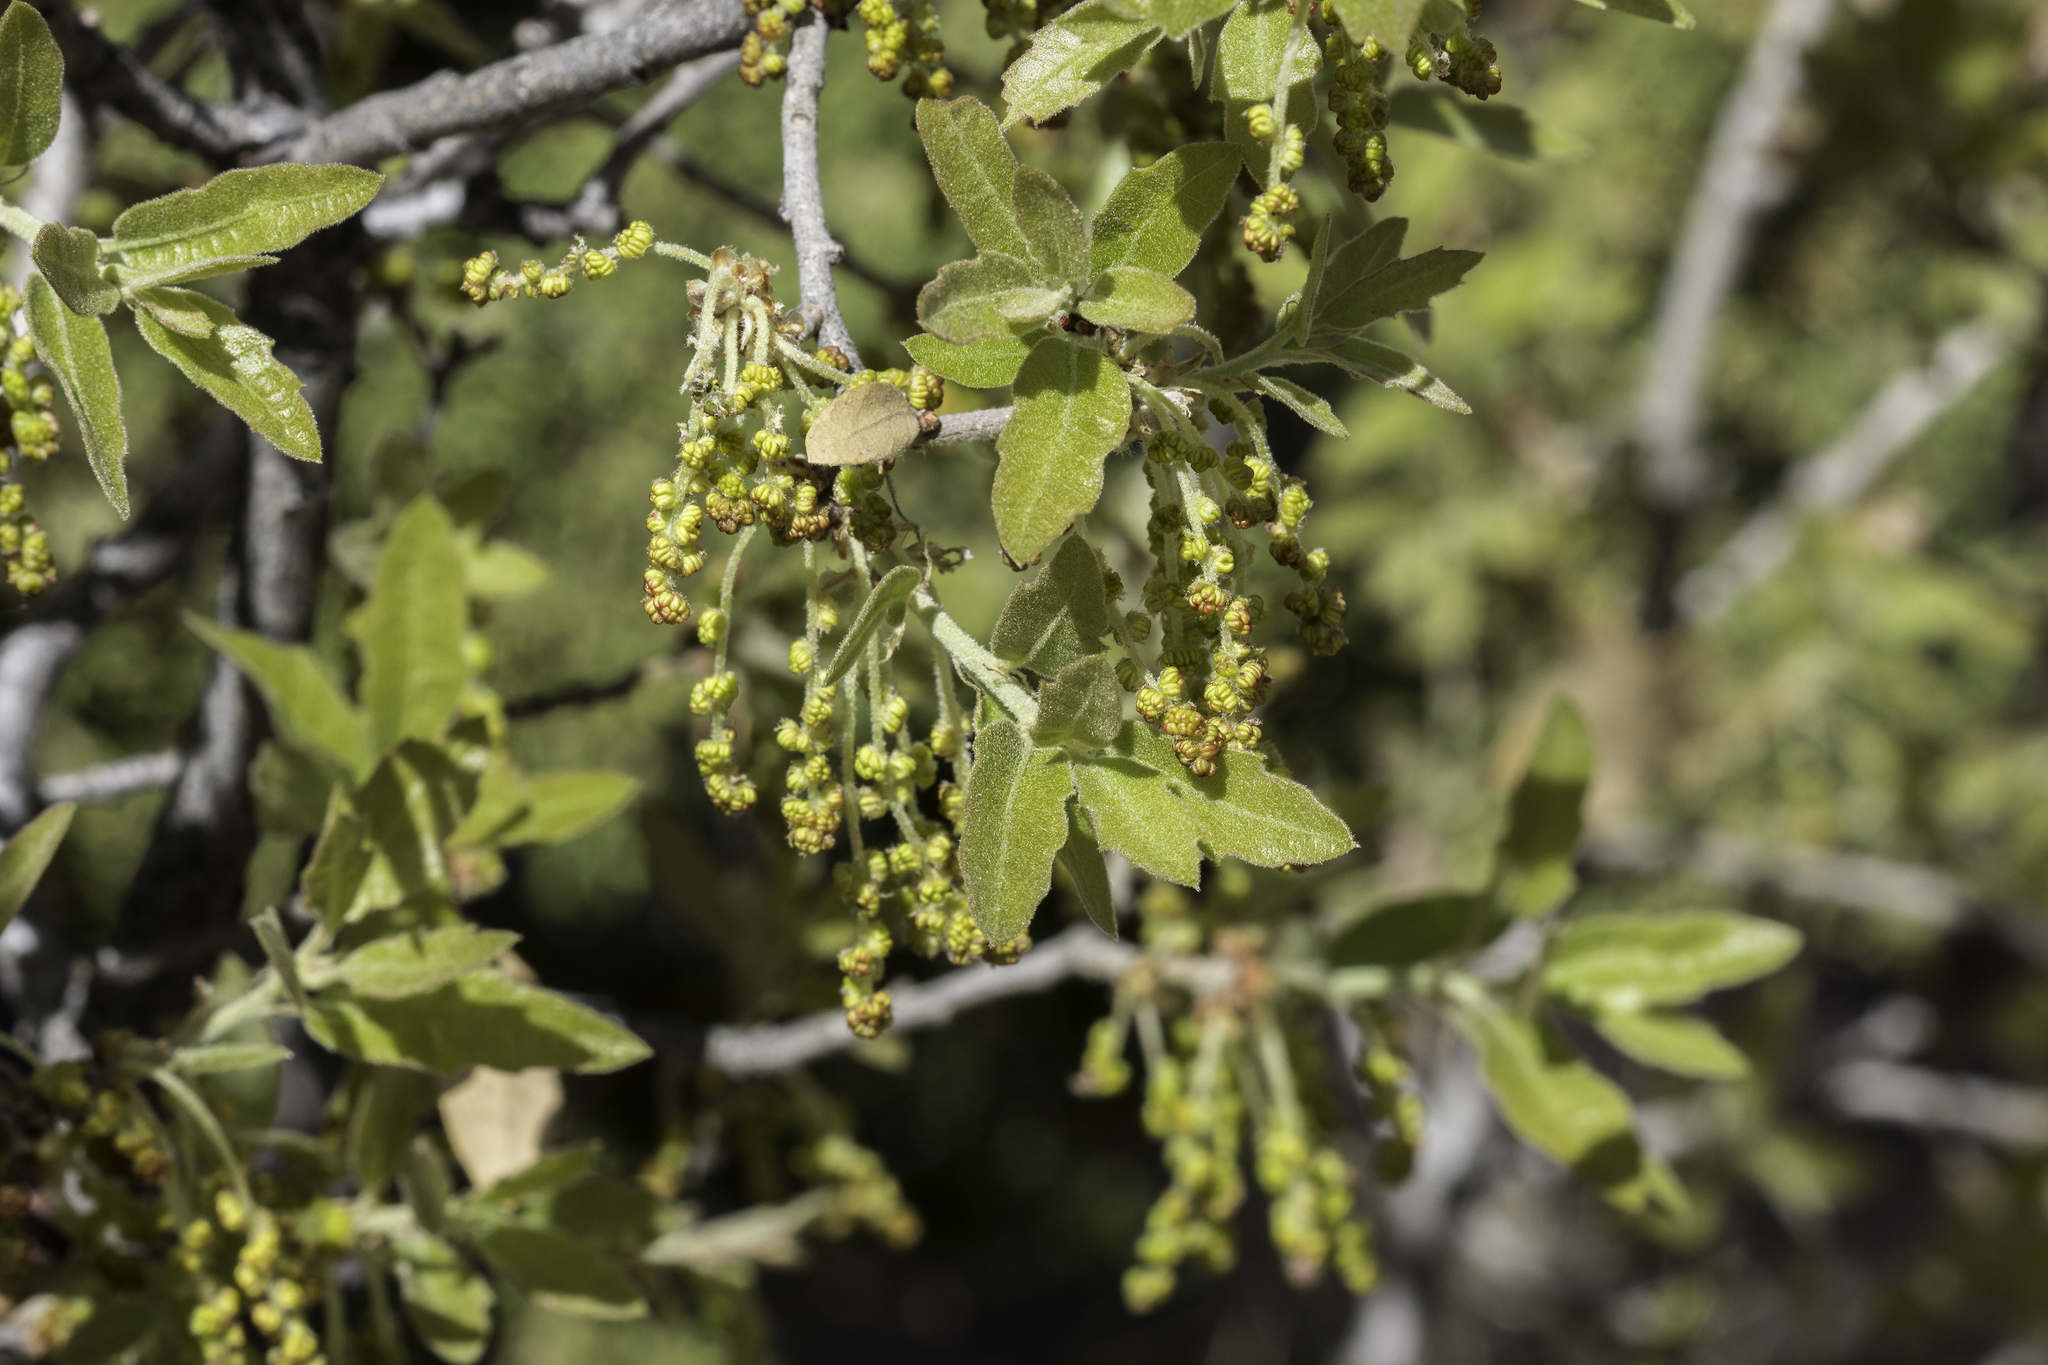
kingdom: Plantae
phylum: Tracheophyta
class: Magnoliopsida
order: Fagales
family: Fagaceae
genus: Quercus
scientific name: Quercus undulata
